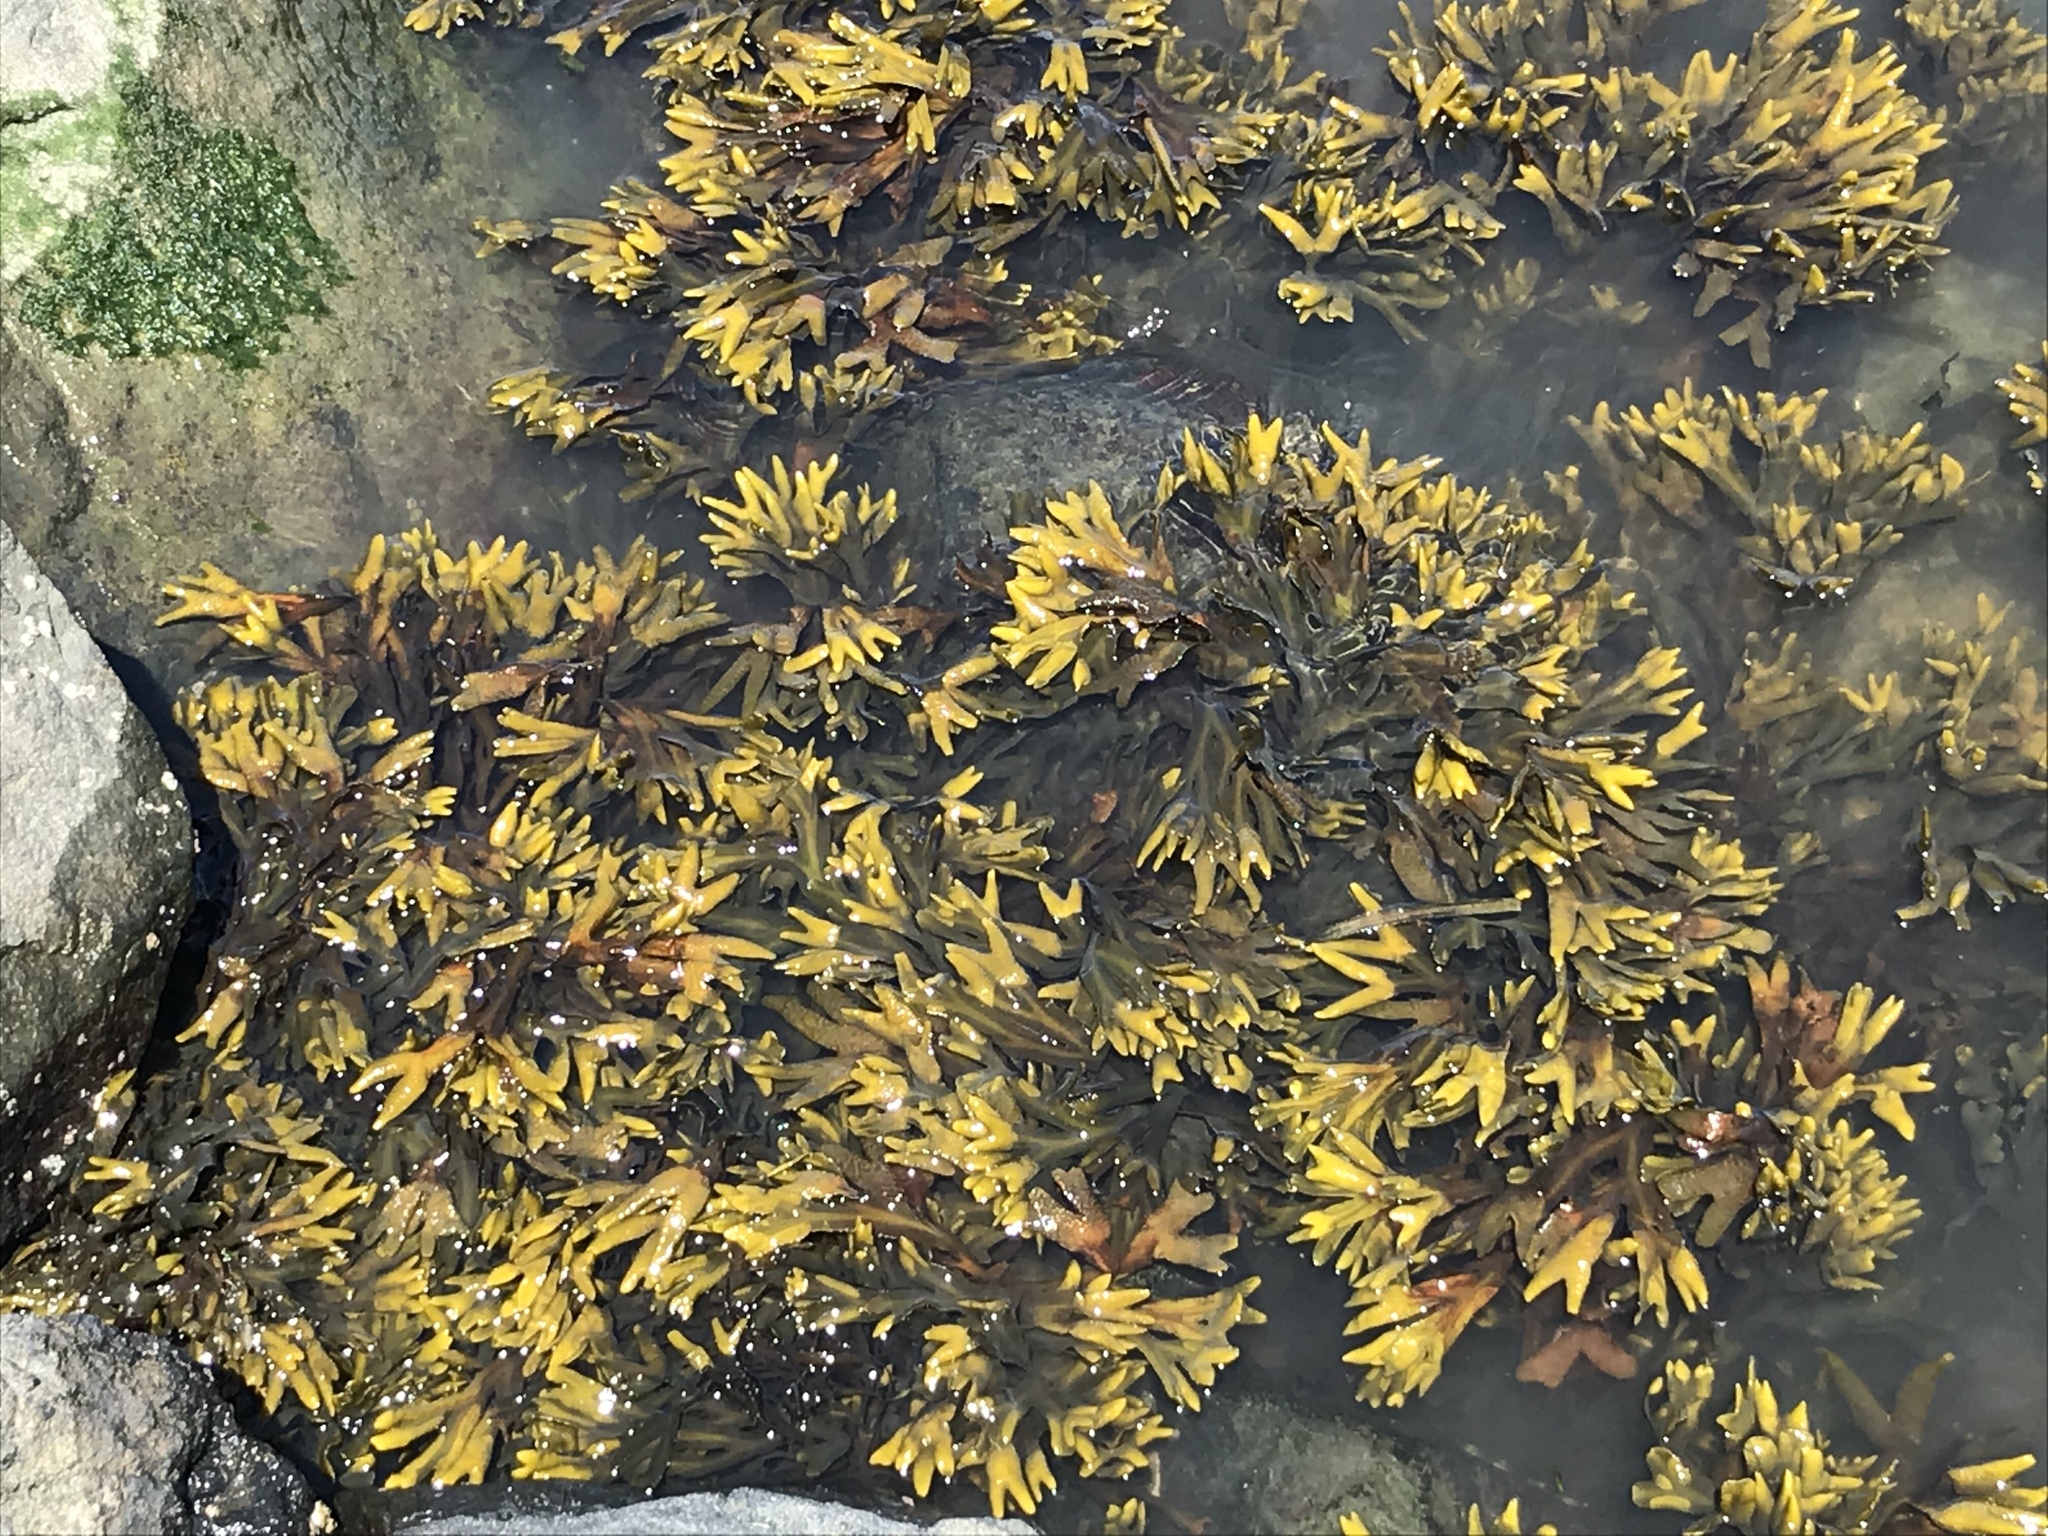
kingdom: Chromista
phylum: Ochrophyta
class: Phaeophyceae
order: Fucales
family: Fucaceae
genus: Fucus
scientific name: Fucus distichus
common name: Rockweed
